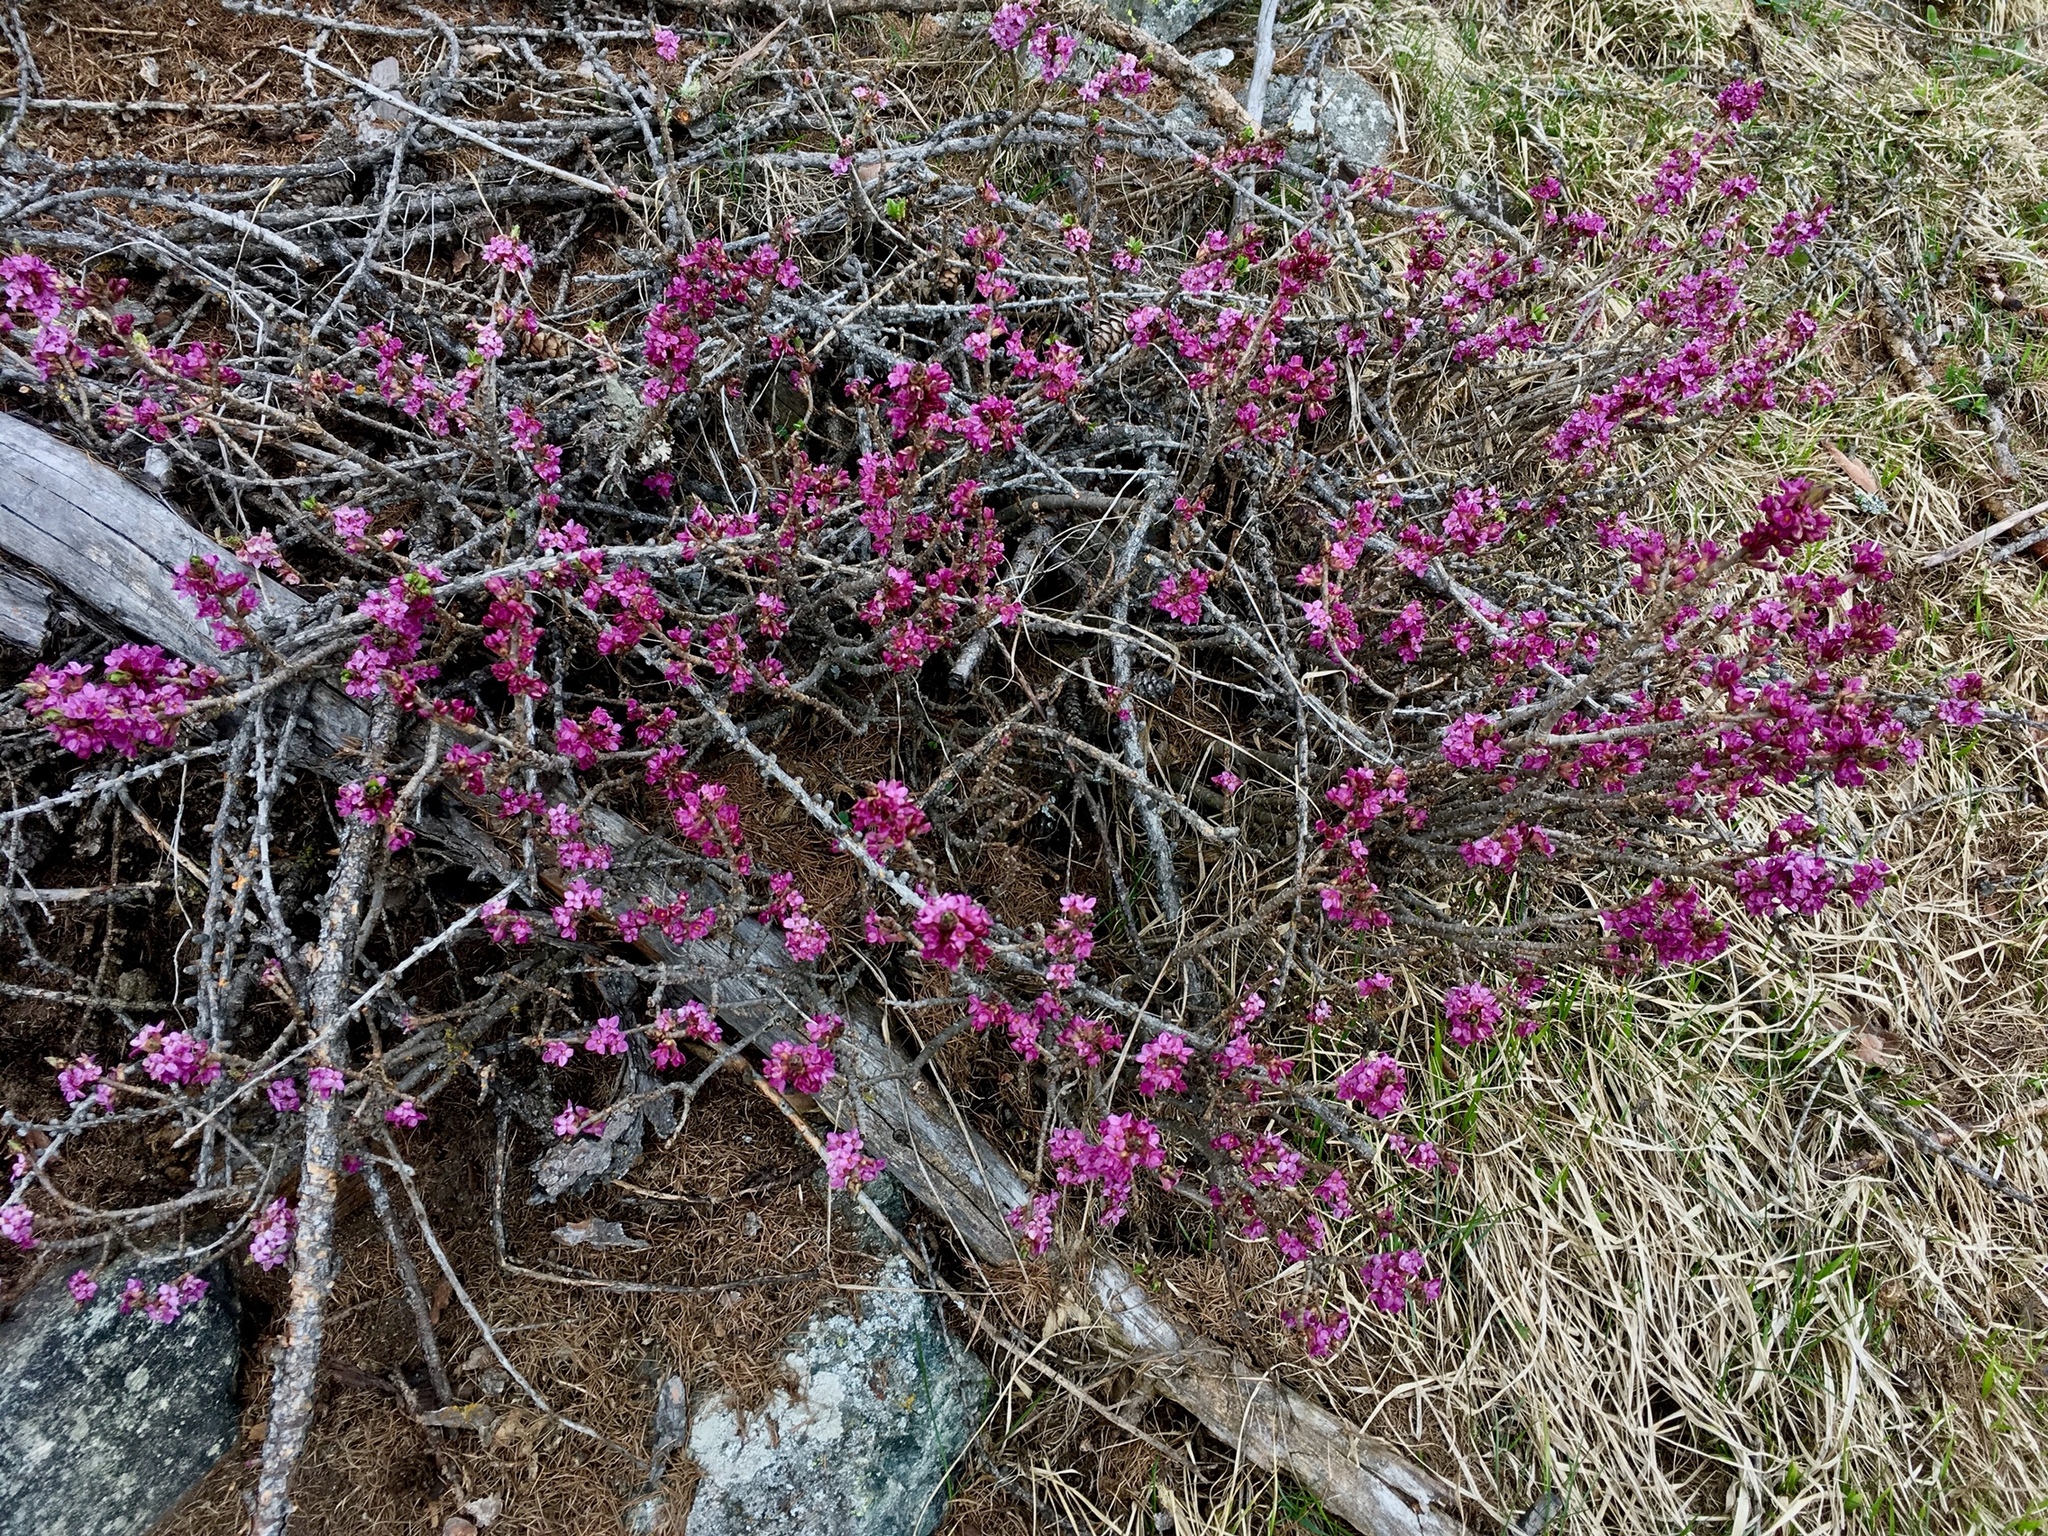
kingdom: Plantae
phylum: Tracheophyta
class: Magnoliopsida
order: Malvales
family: Thymelaeaceae
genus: Daphne
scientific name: Daphne mezereum
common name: Mezereon
